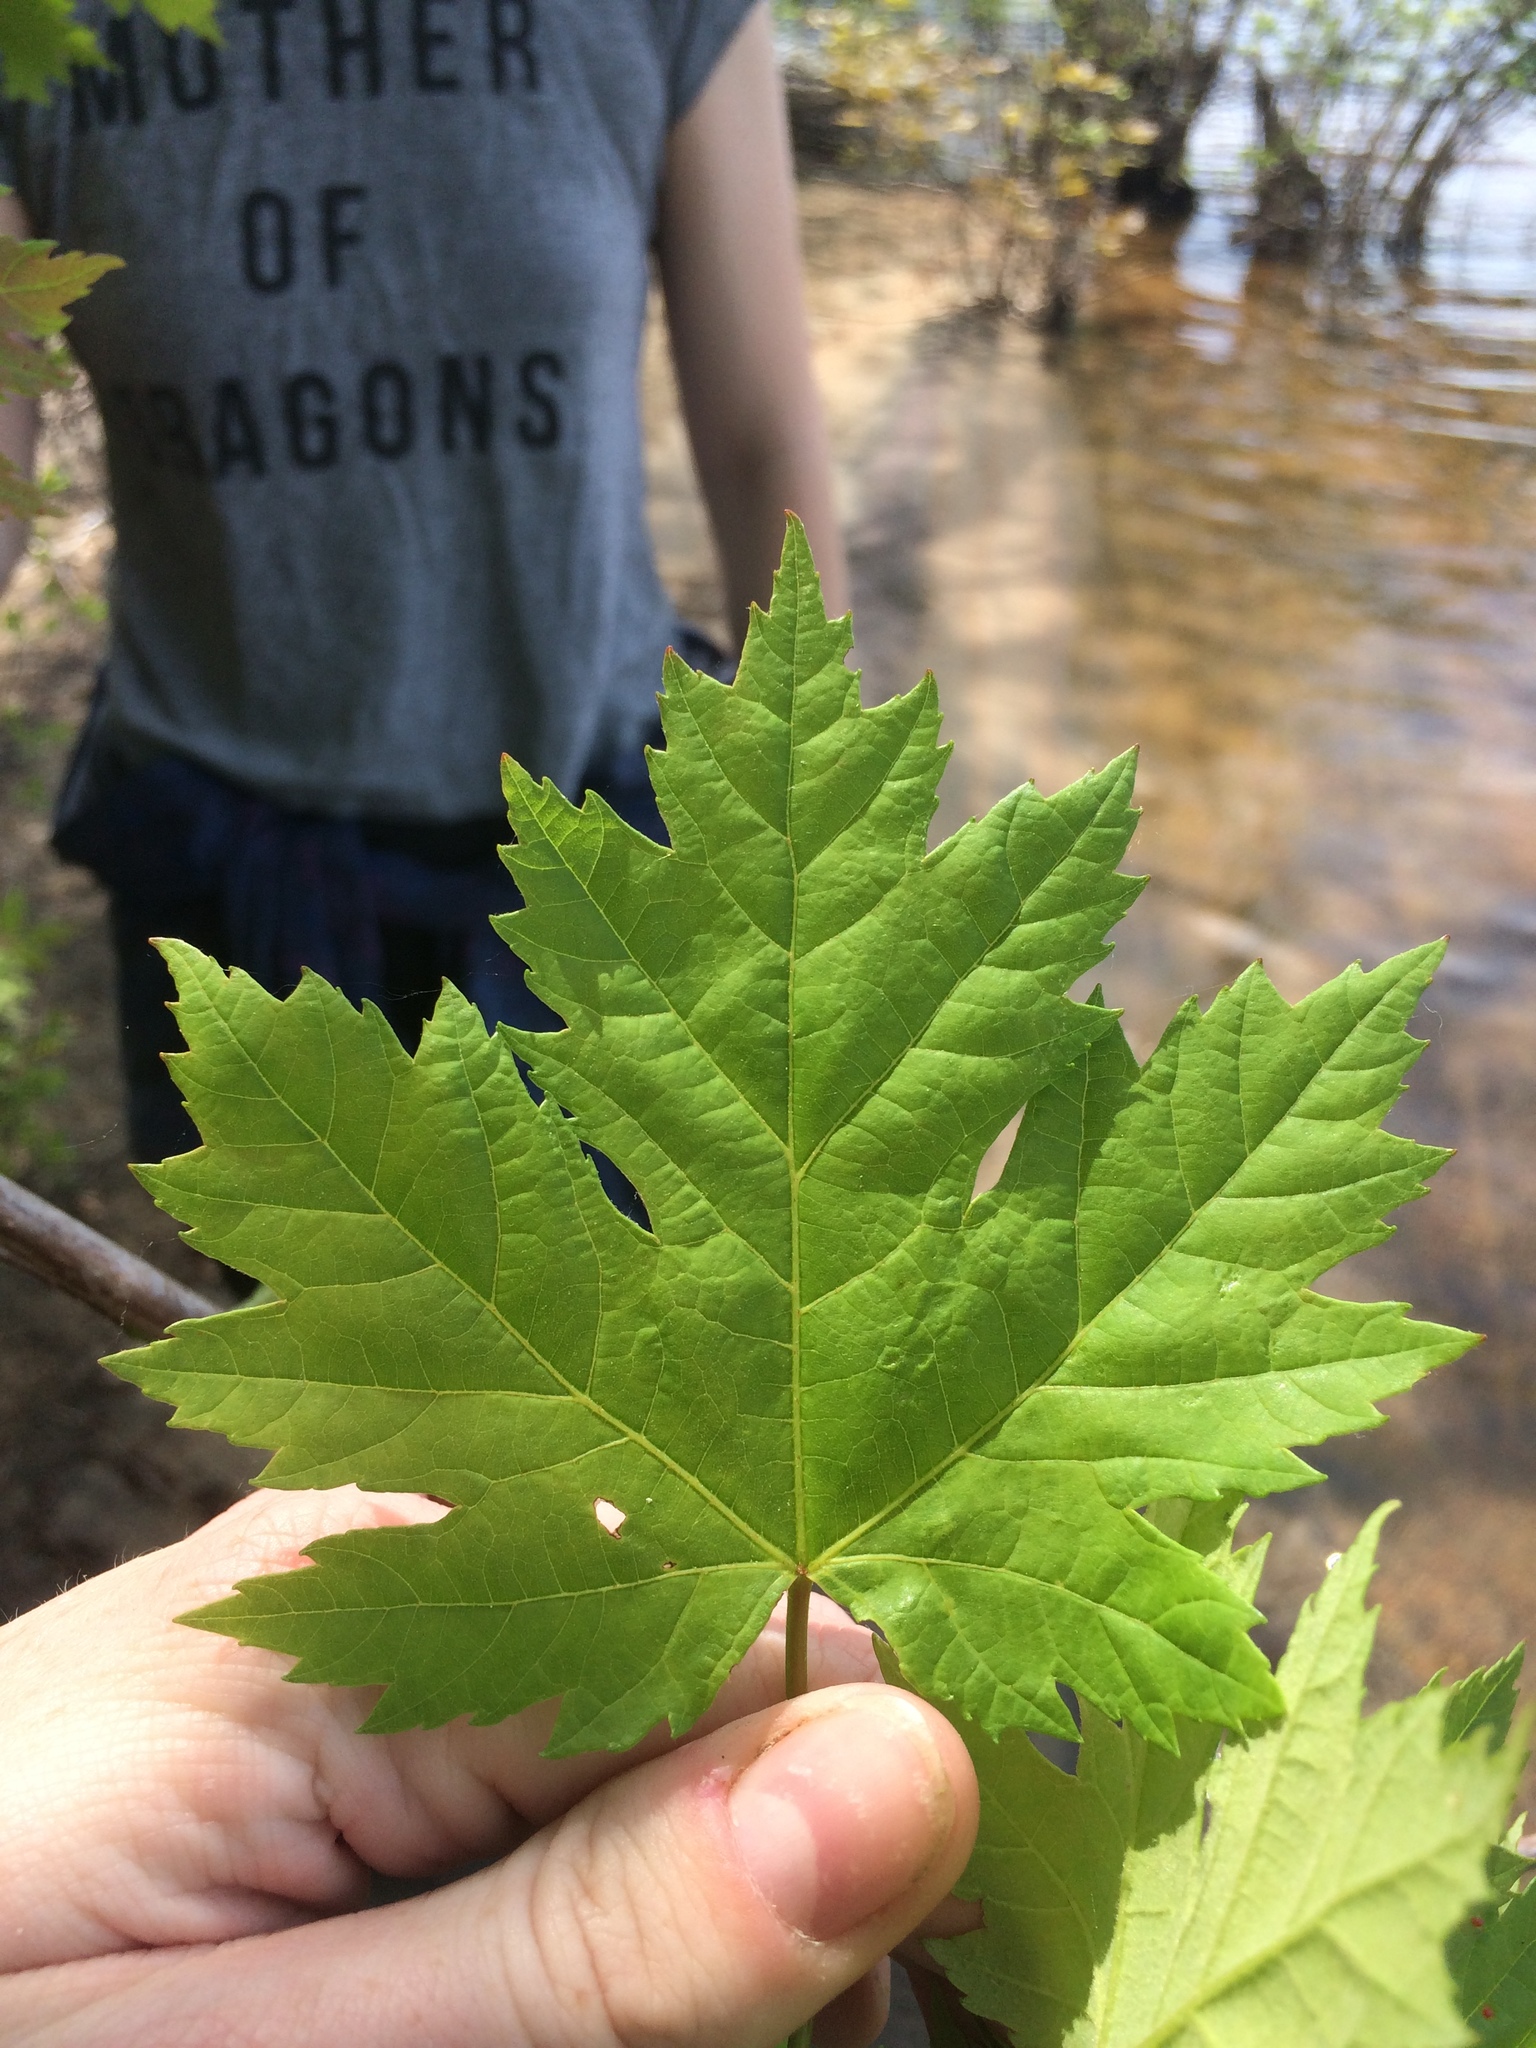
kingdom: Plantae
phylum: Tracheophyta
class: Magnoliopsida
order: Sapindales
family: Sapindaceae
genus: Acer
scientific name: Acer freemanii
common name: Freeman maple
